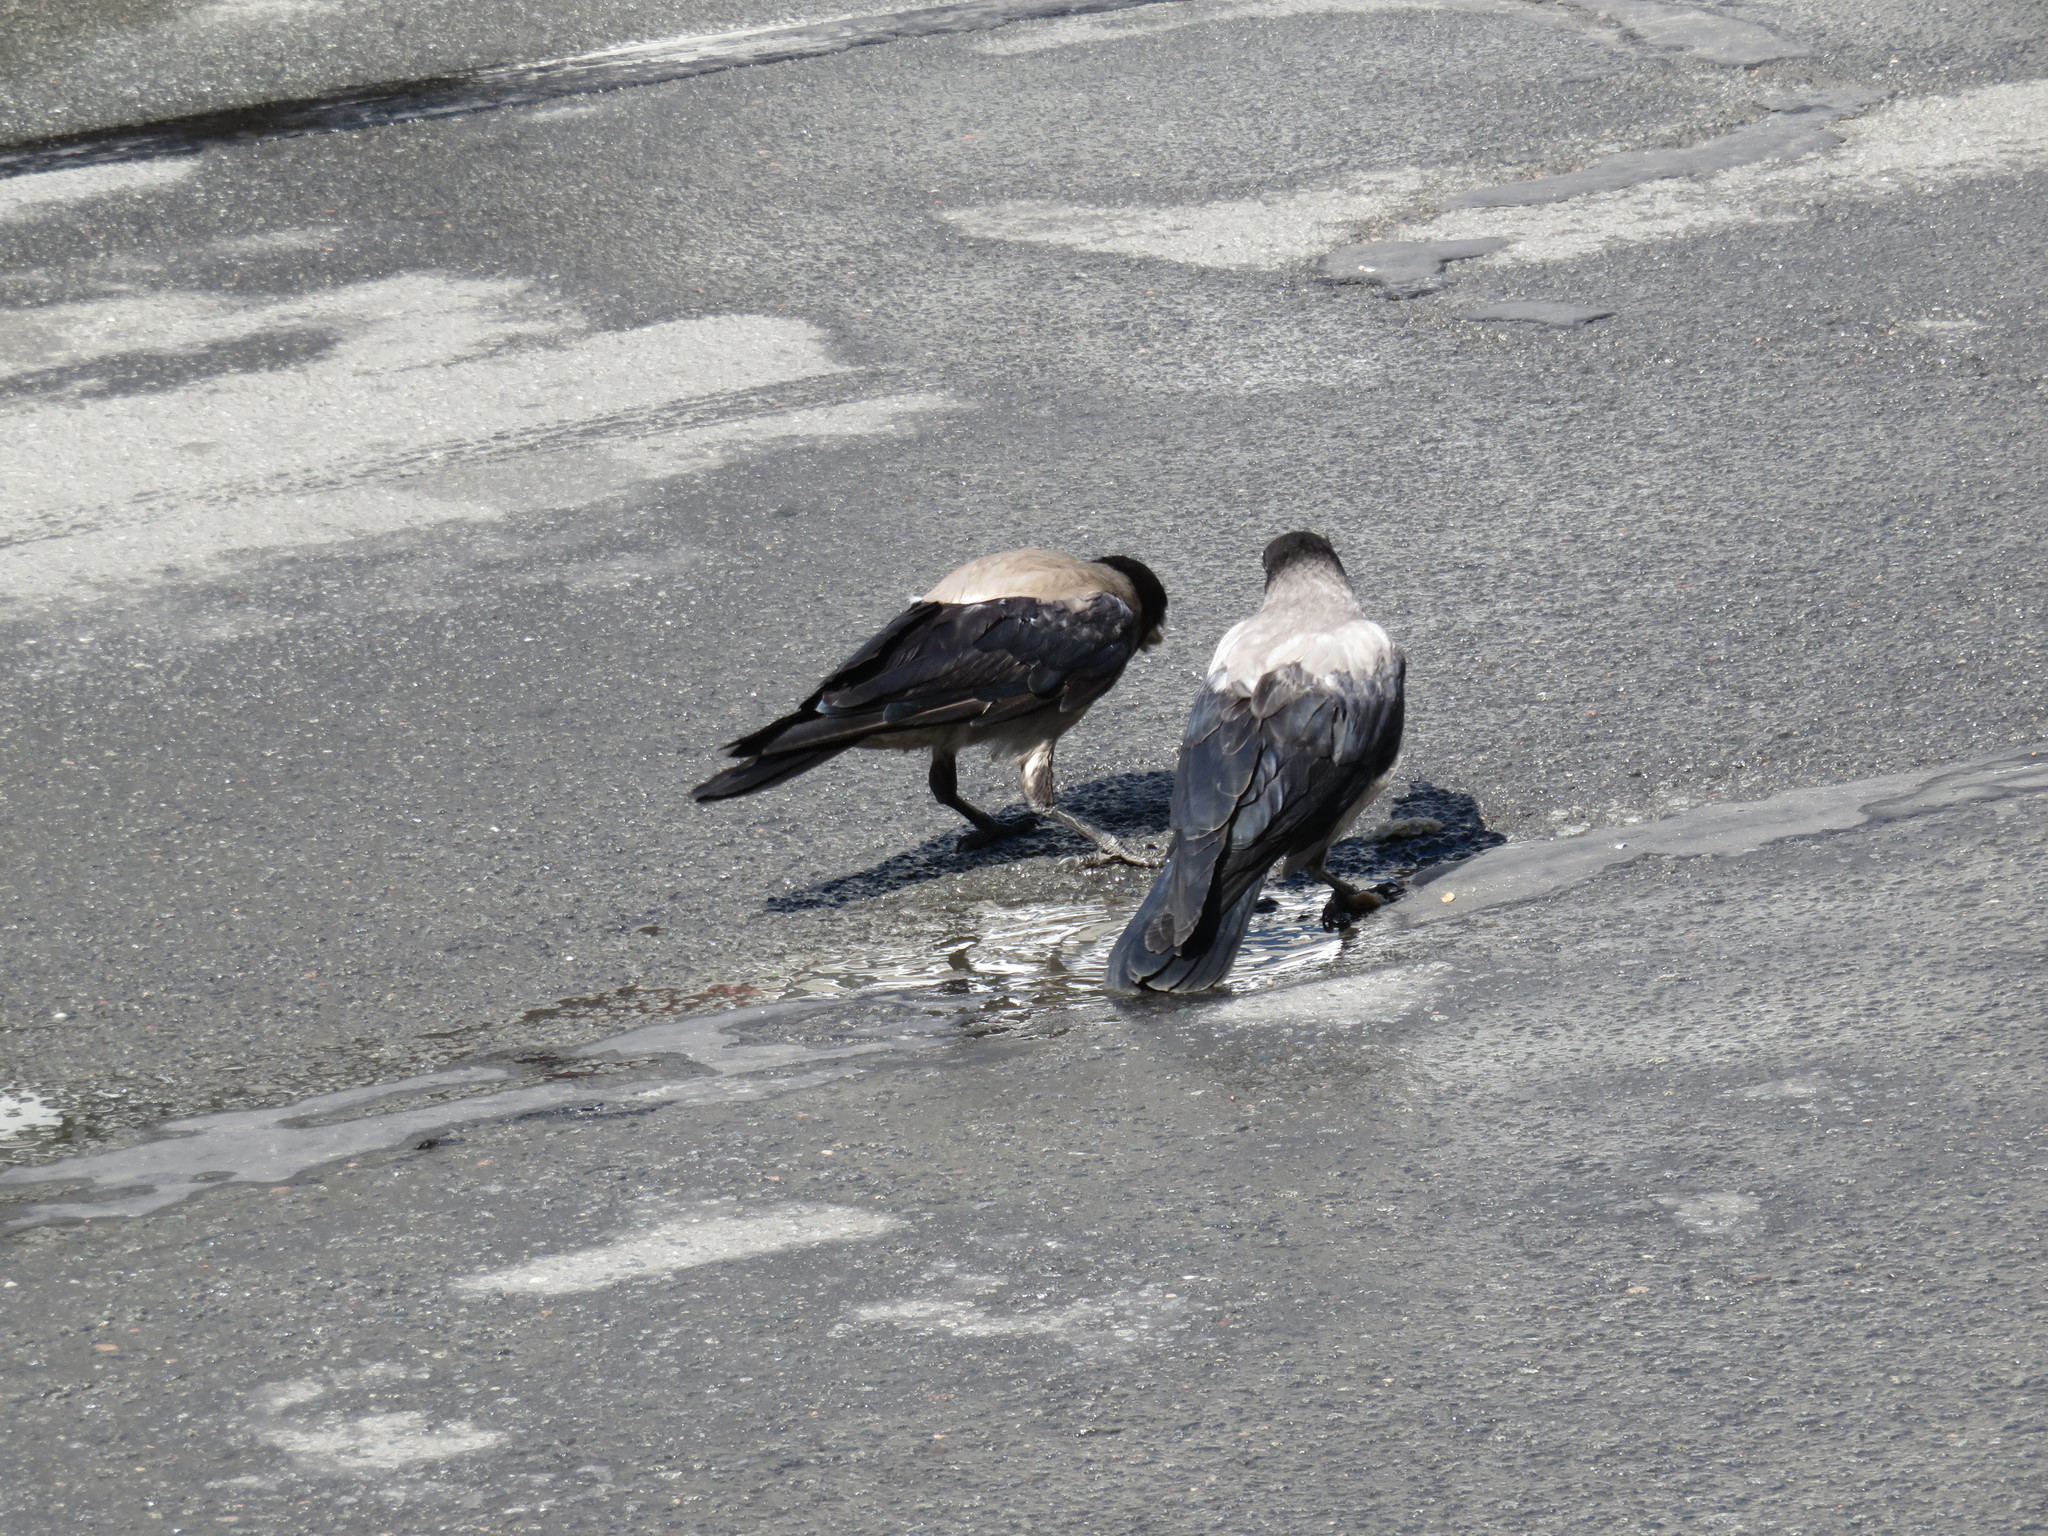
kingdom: Animalia
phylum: Chordata
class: Aves
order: Passeriformes
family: Corvidae
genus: Corvus
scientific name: Corvus cornix
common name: Hooded crow
